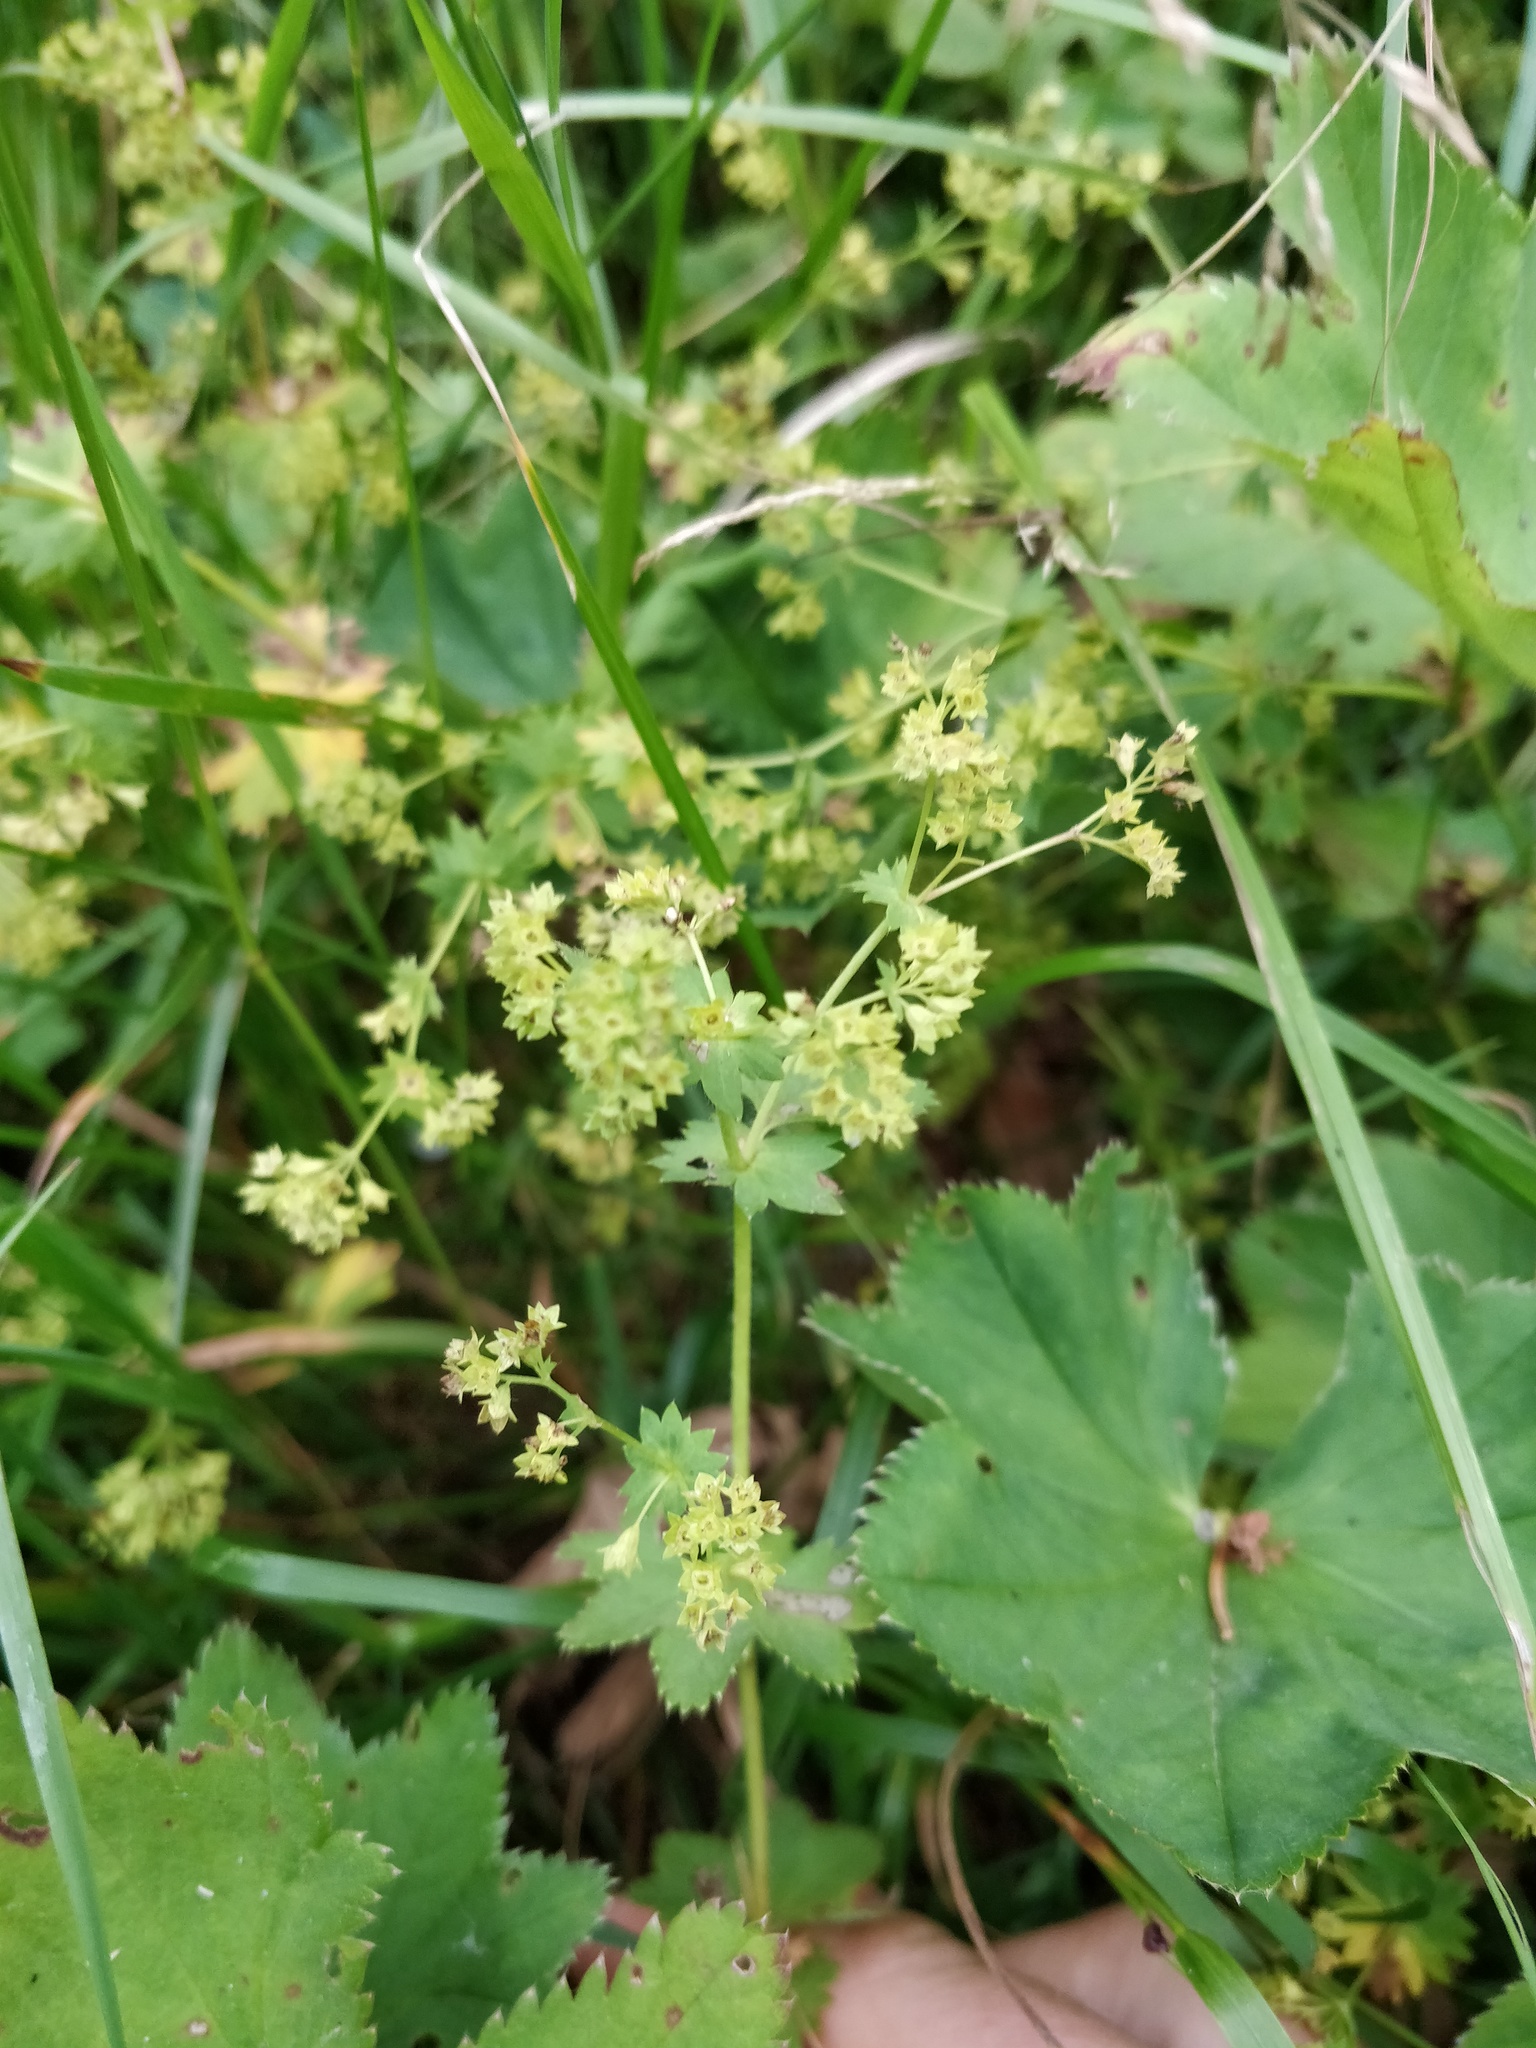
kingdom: Plantae
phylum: Tracheophyta
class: Magnoliopsida
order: Rosales
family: Rosaceae
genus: Alchemilla
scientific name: Alchemilla tichomirovii
